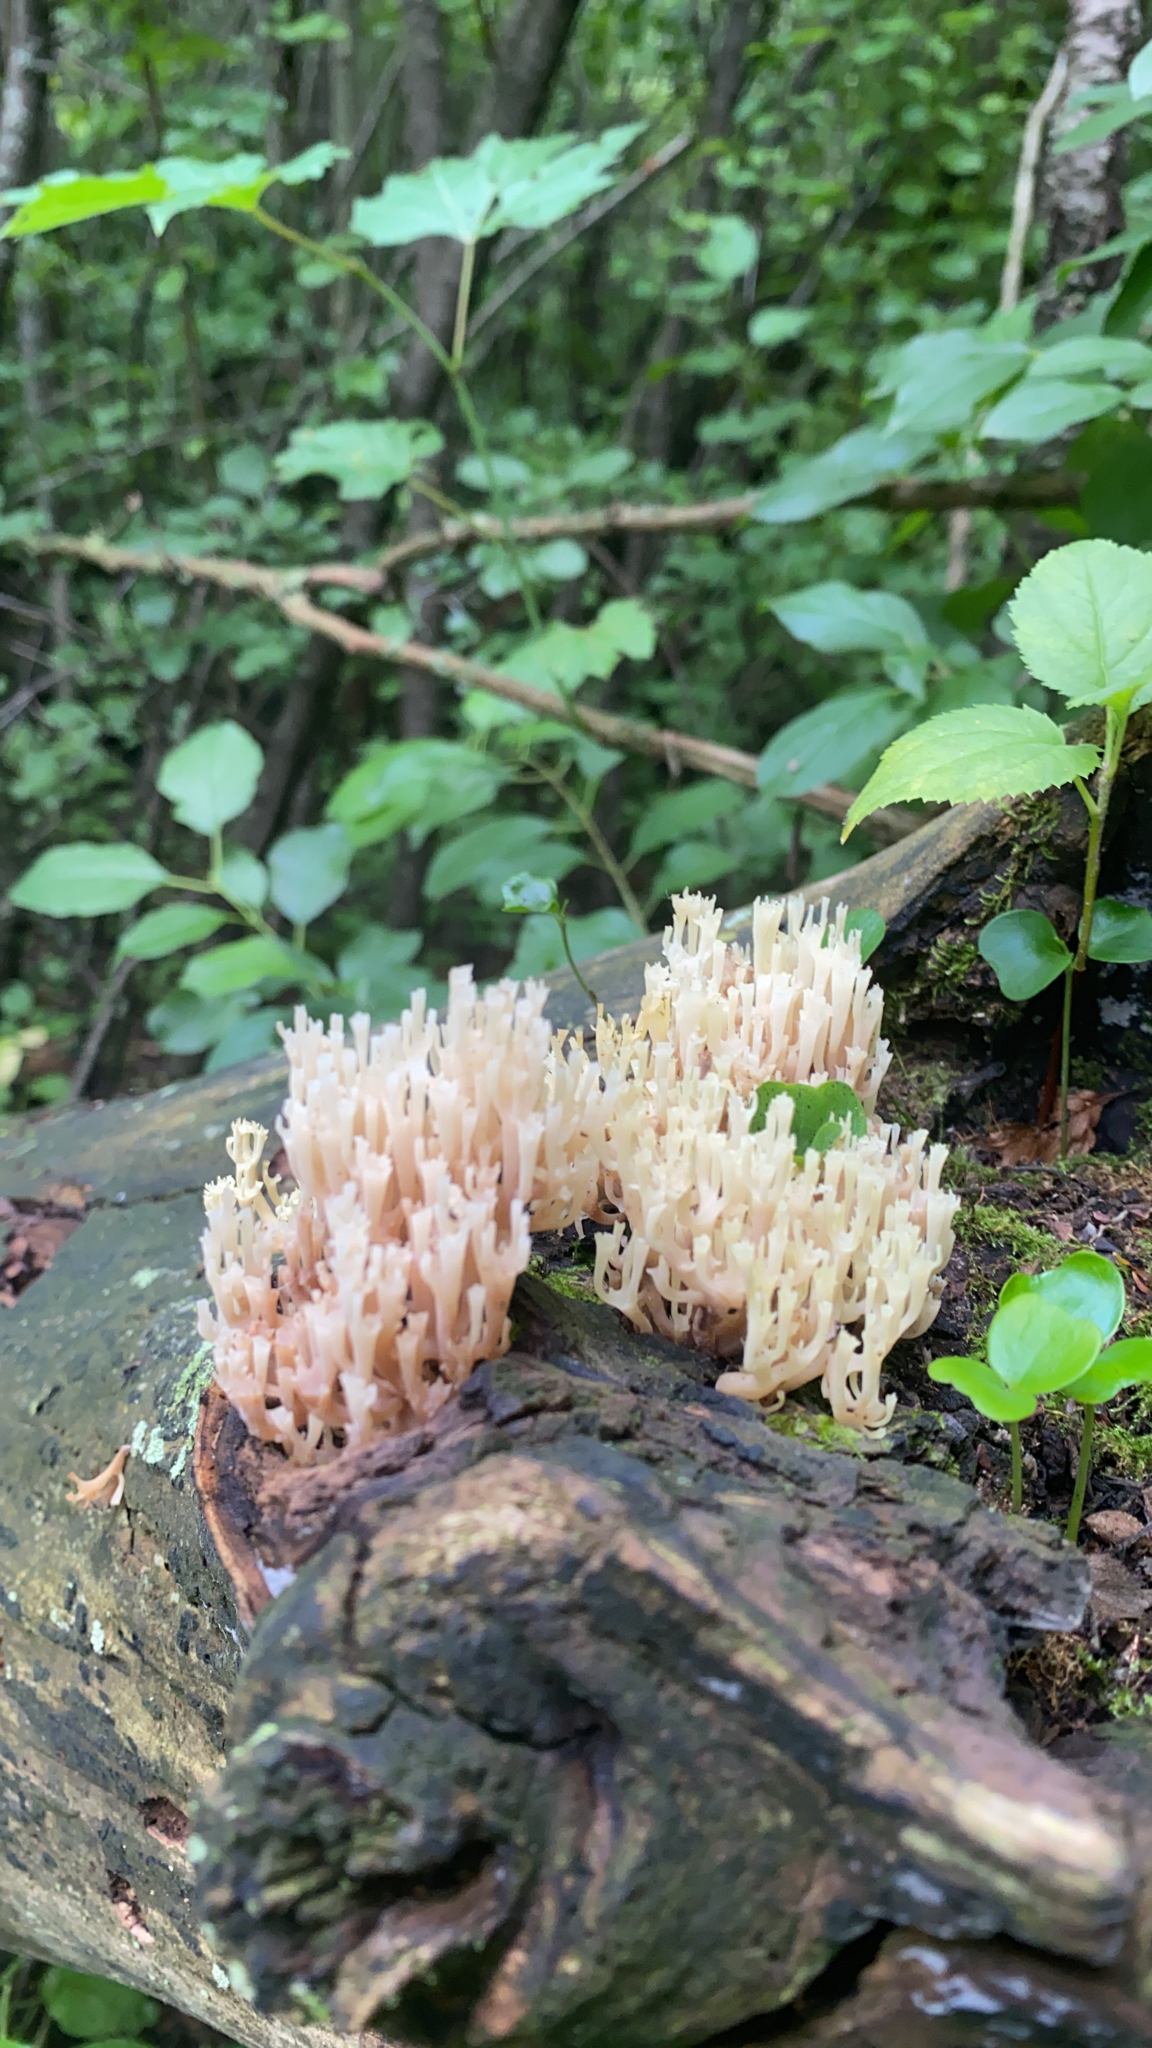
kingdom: Fungi
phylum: Basidiomycota
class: Agaricomycetes
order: Russulales
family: Auriscalpiaceae
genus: Artomyces
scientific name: Artomyces pyxidatus
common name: Crown-tipped coral fungus
